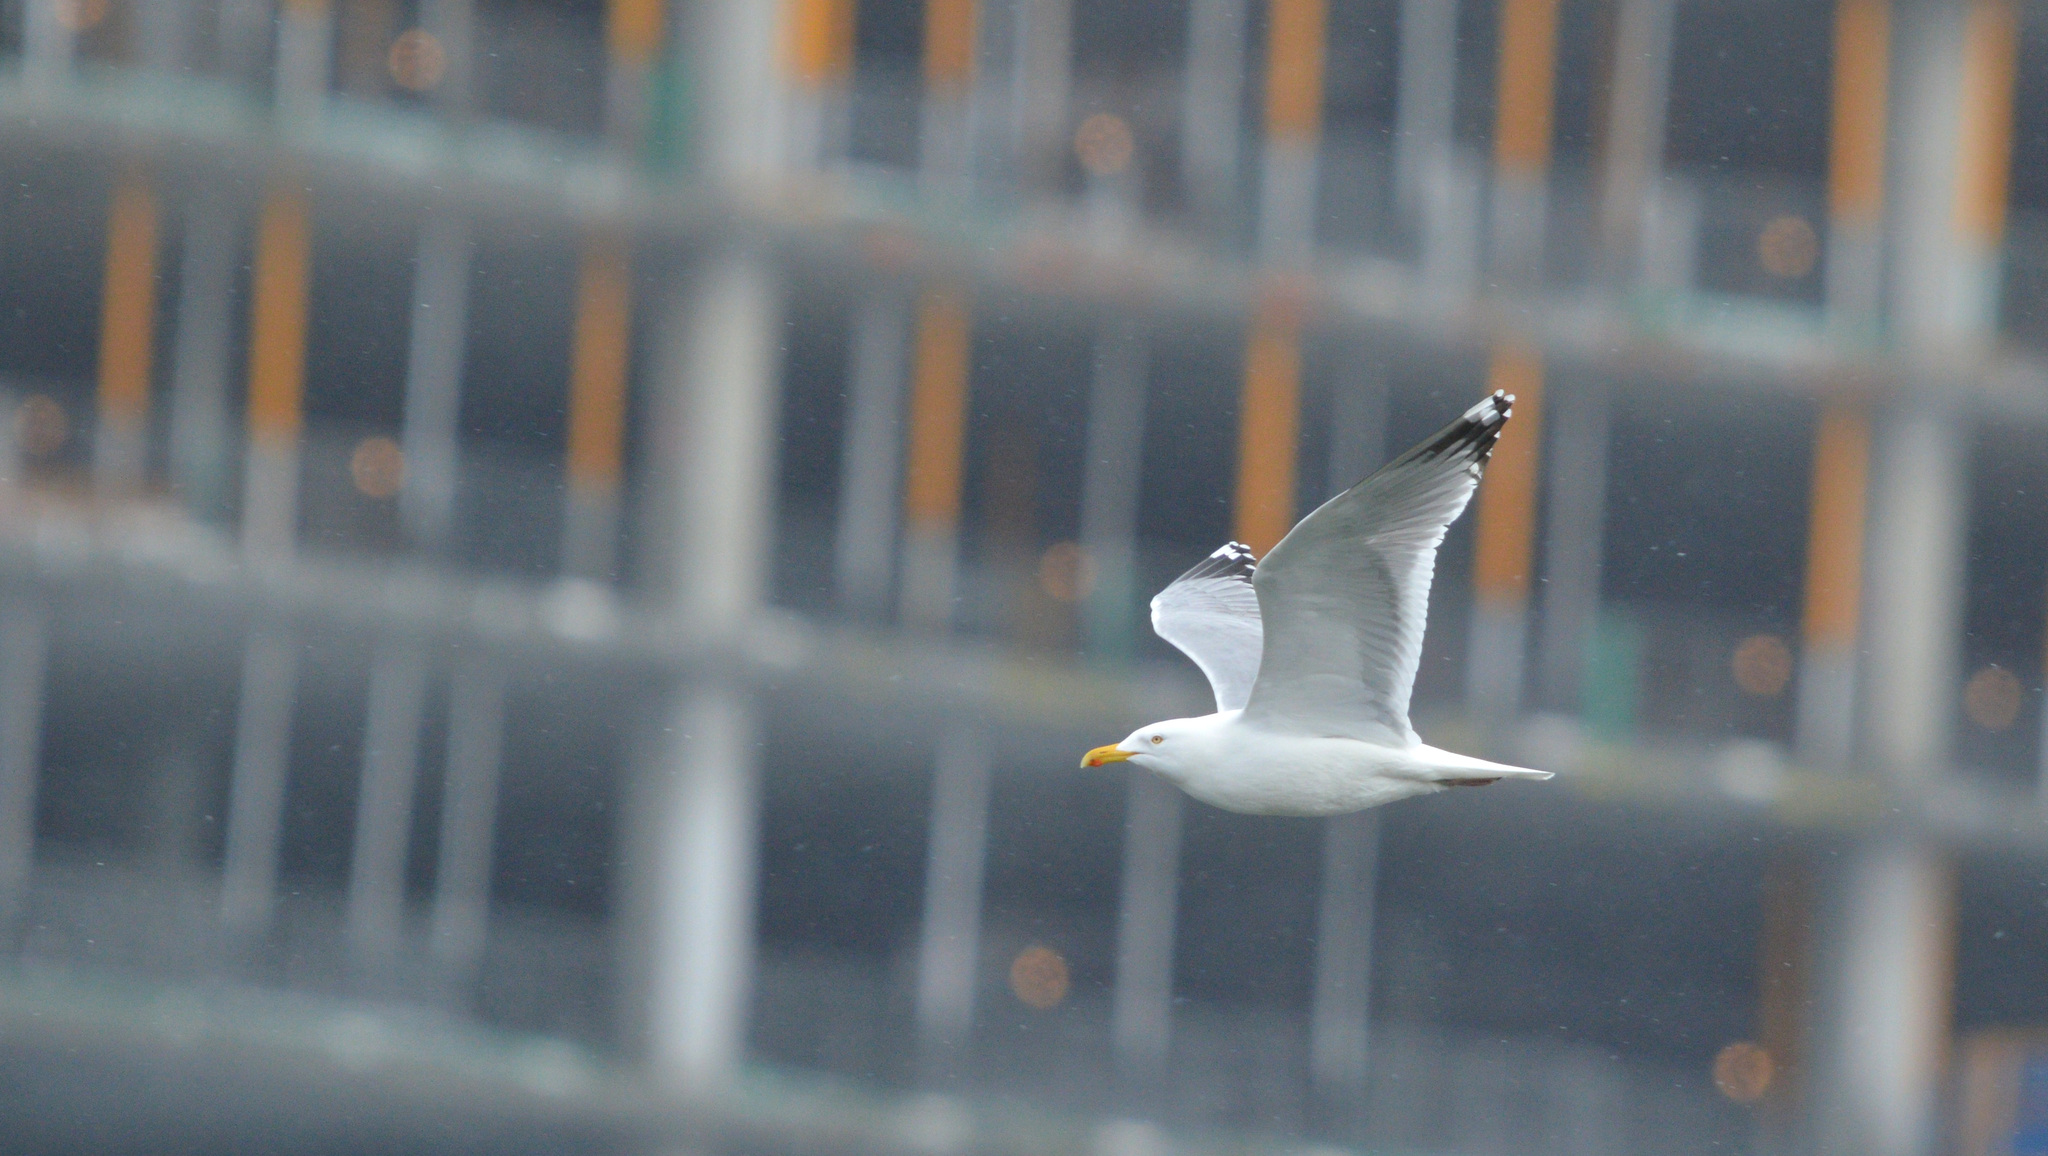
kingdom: Animalia
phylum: Chordata
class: Aves
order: Charadriiformes
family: Laridae
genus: Larus
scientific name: Larus argentatus
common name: Herring gull
